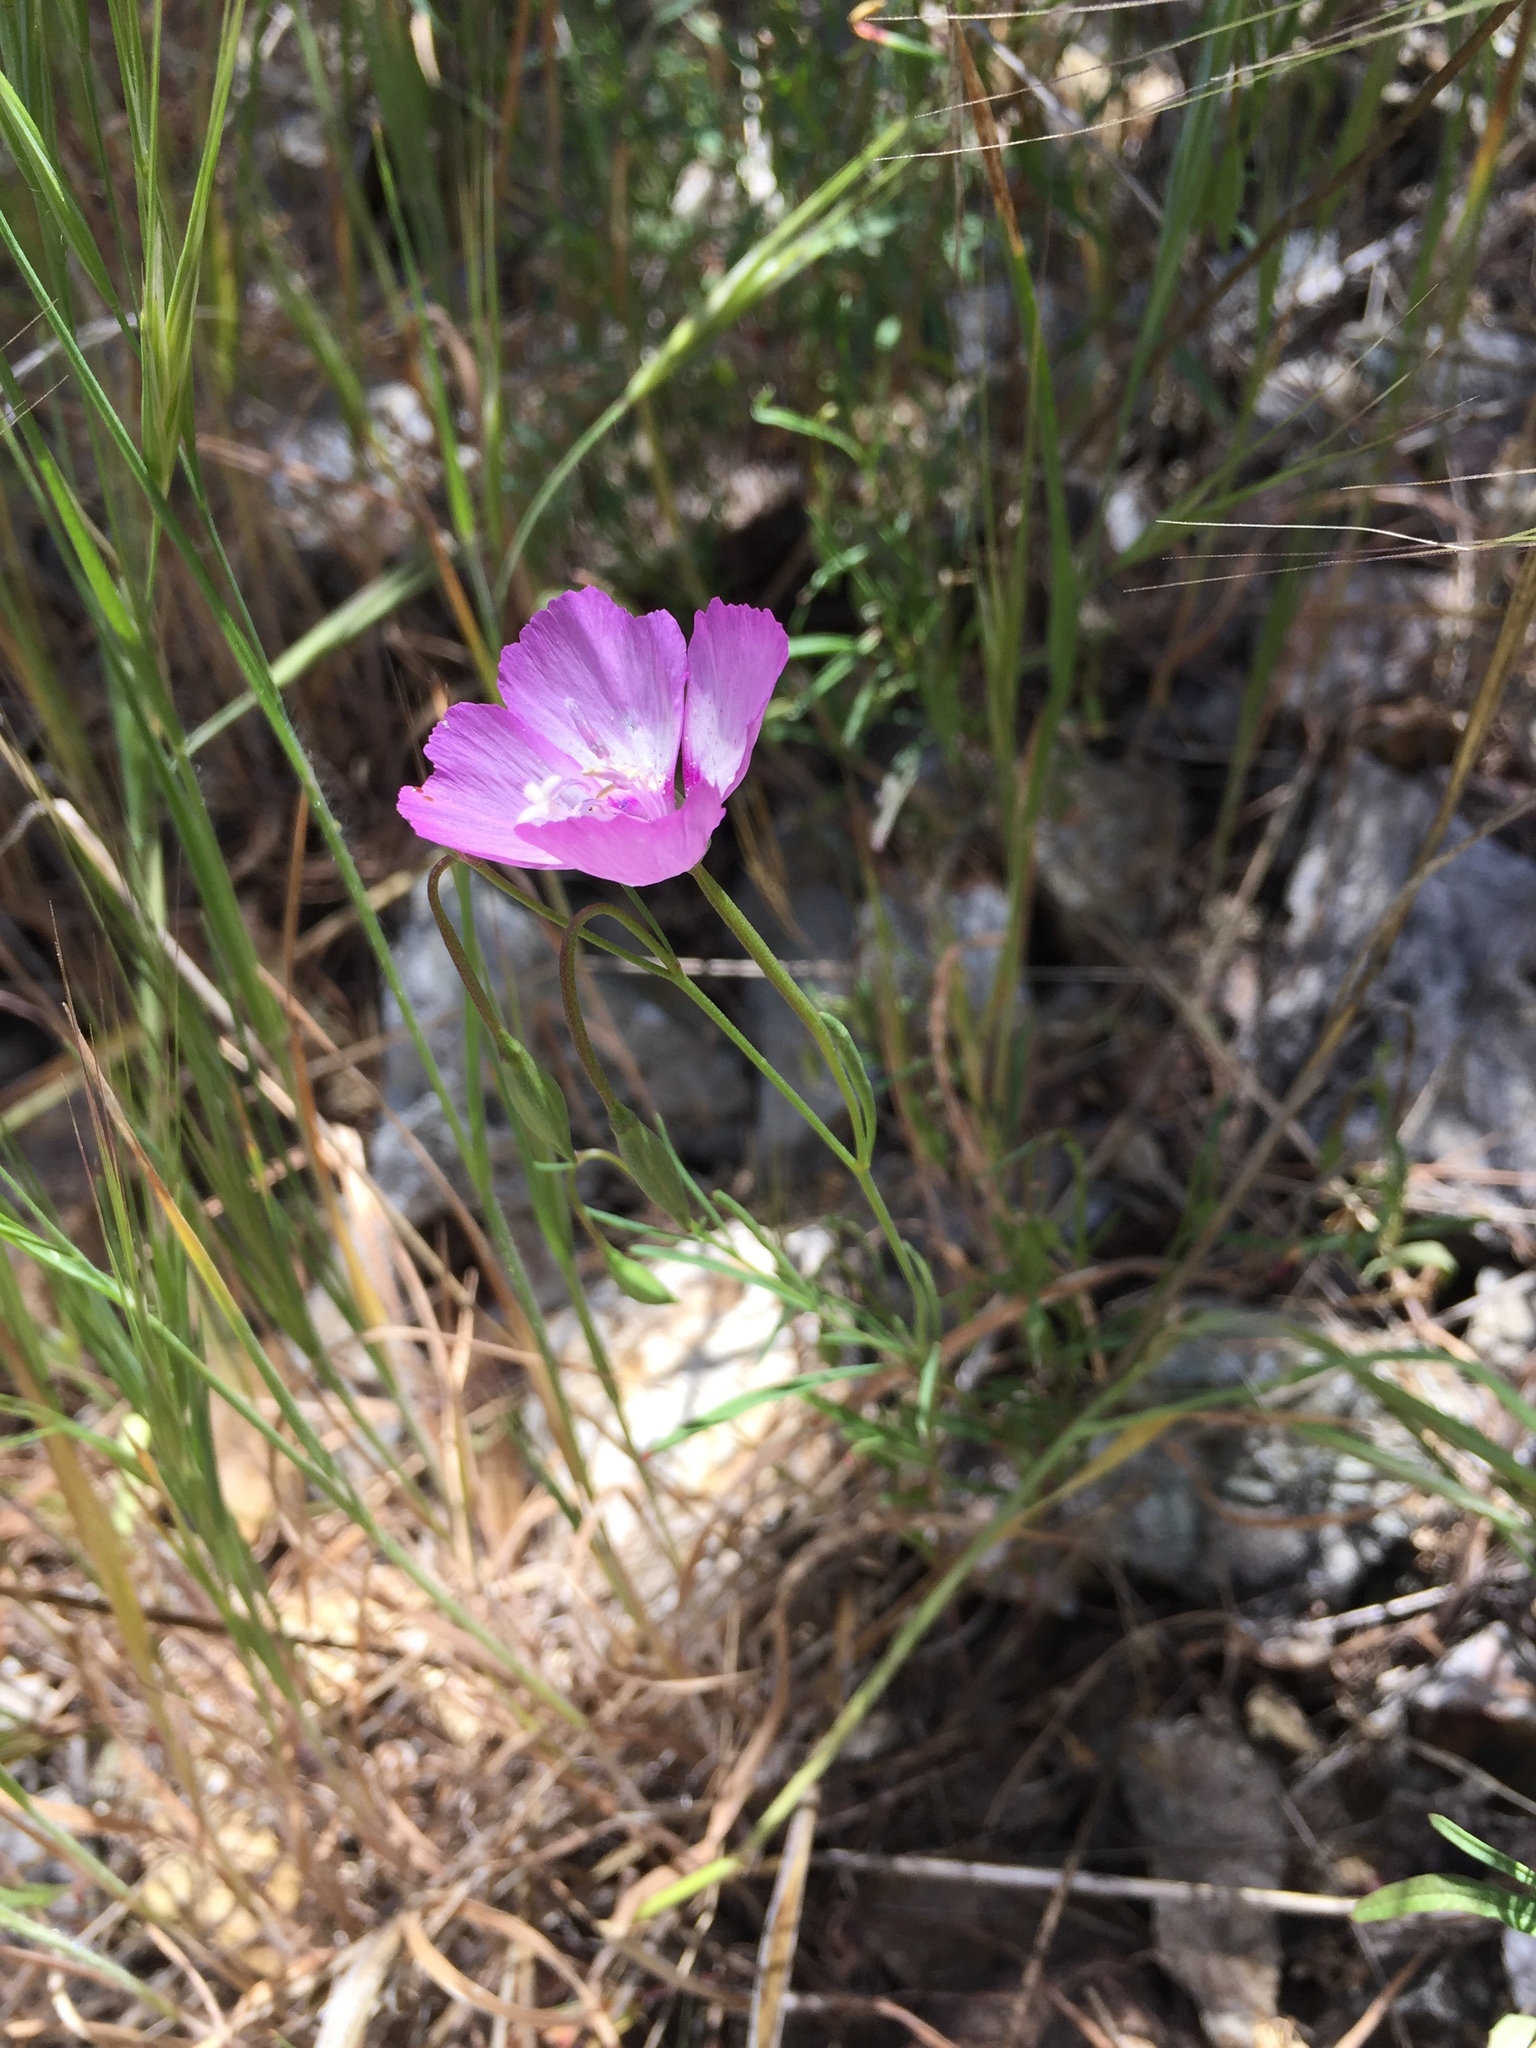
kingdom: Plantae
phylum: Tracheophyta
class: Magnoliopsida
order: Myrtales
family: Onagraceae
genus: Clarkia
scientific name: Clarkia cylindrica
